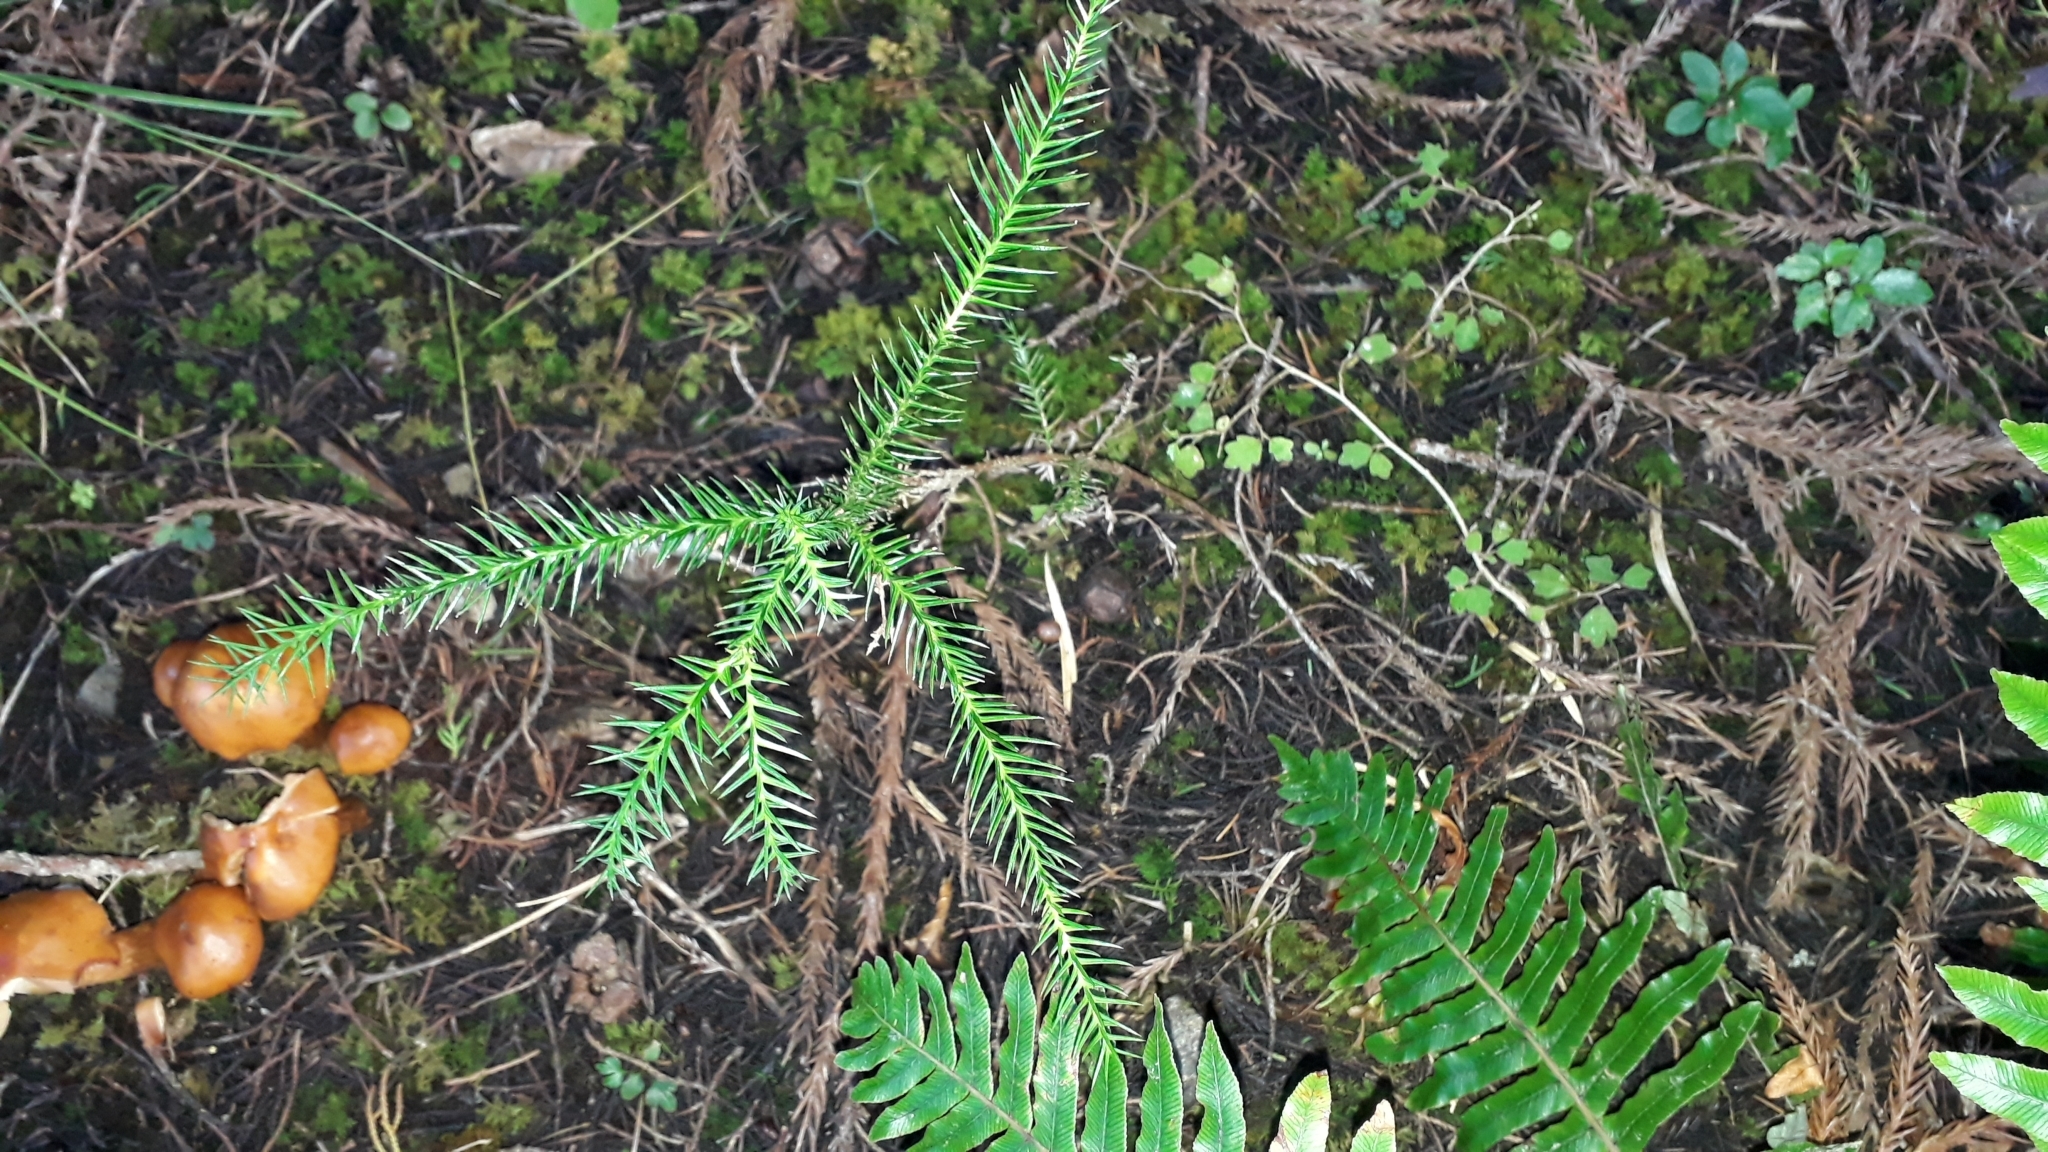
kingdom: Plantae
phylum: Tracheophyta
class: Pinopsida
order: Pinales
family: Cupressaceae
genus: Cryptomeria
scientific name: Cryptomeria japonica
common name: Japanese cedar
